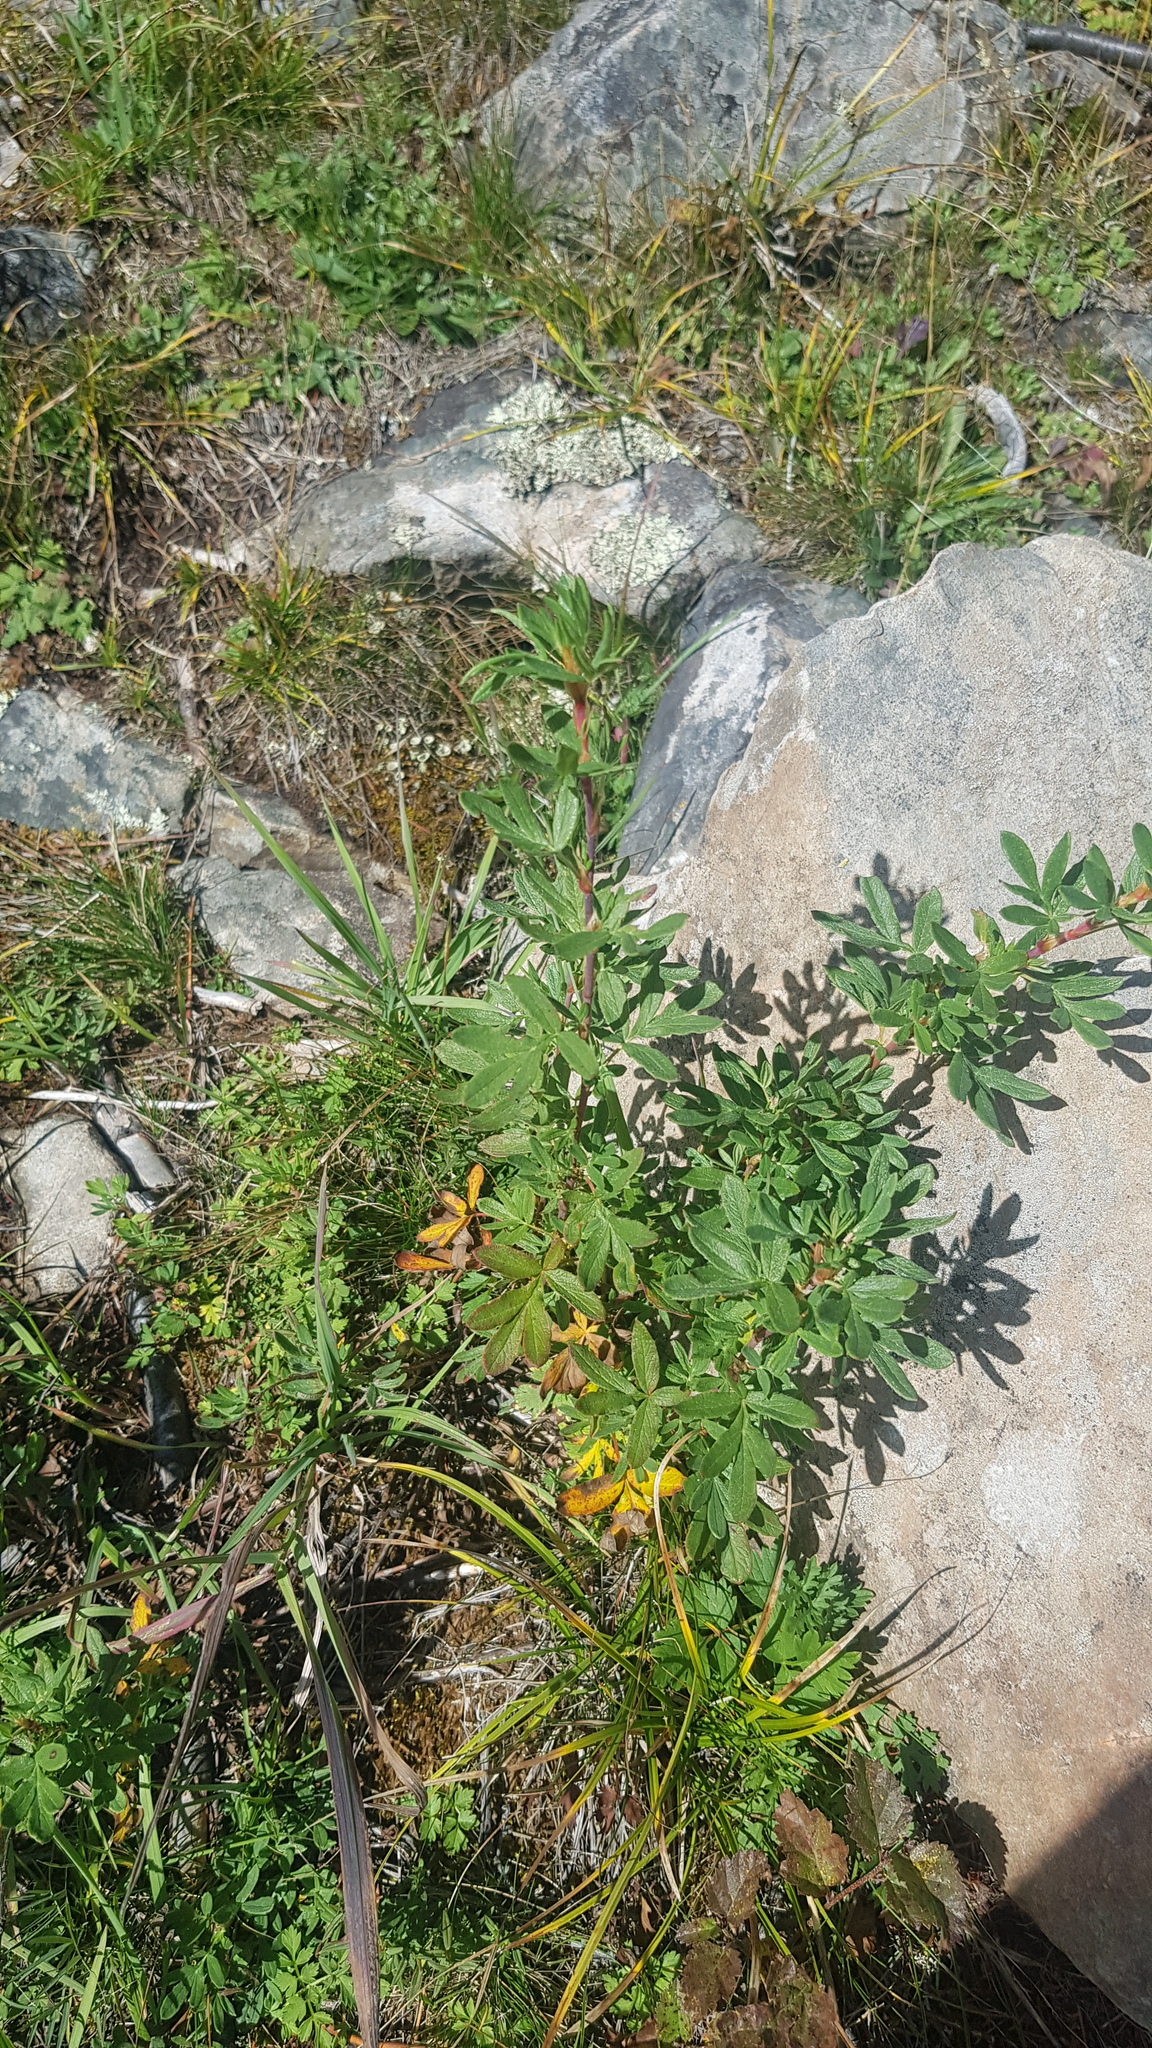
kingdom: Plantae
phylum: Tracheophyta
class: Magnoliopsida
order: Rosales
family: Rosaceae
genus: Dasiphora
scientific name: Dasiphora fruticosa
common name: Shrubby cinquefoil
